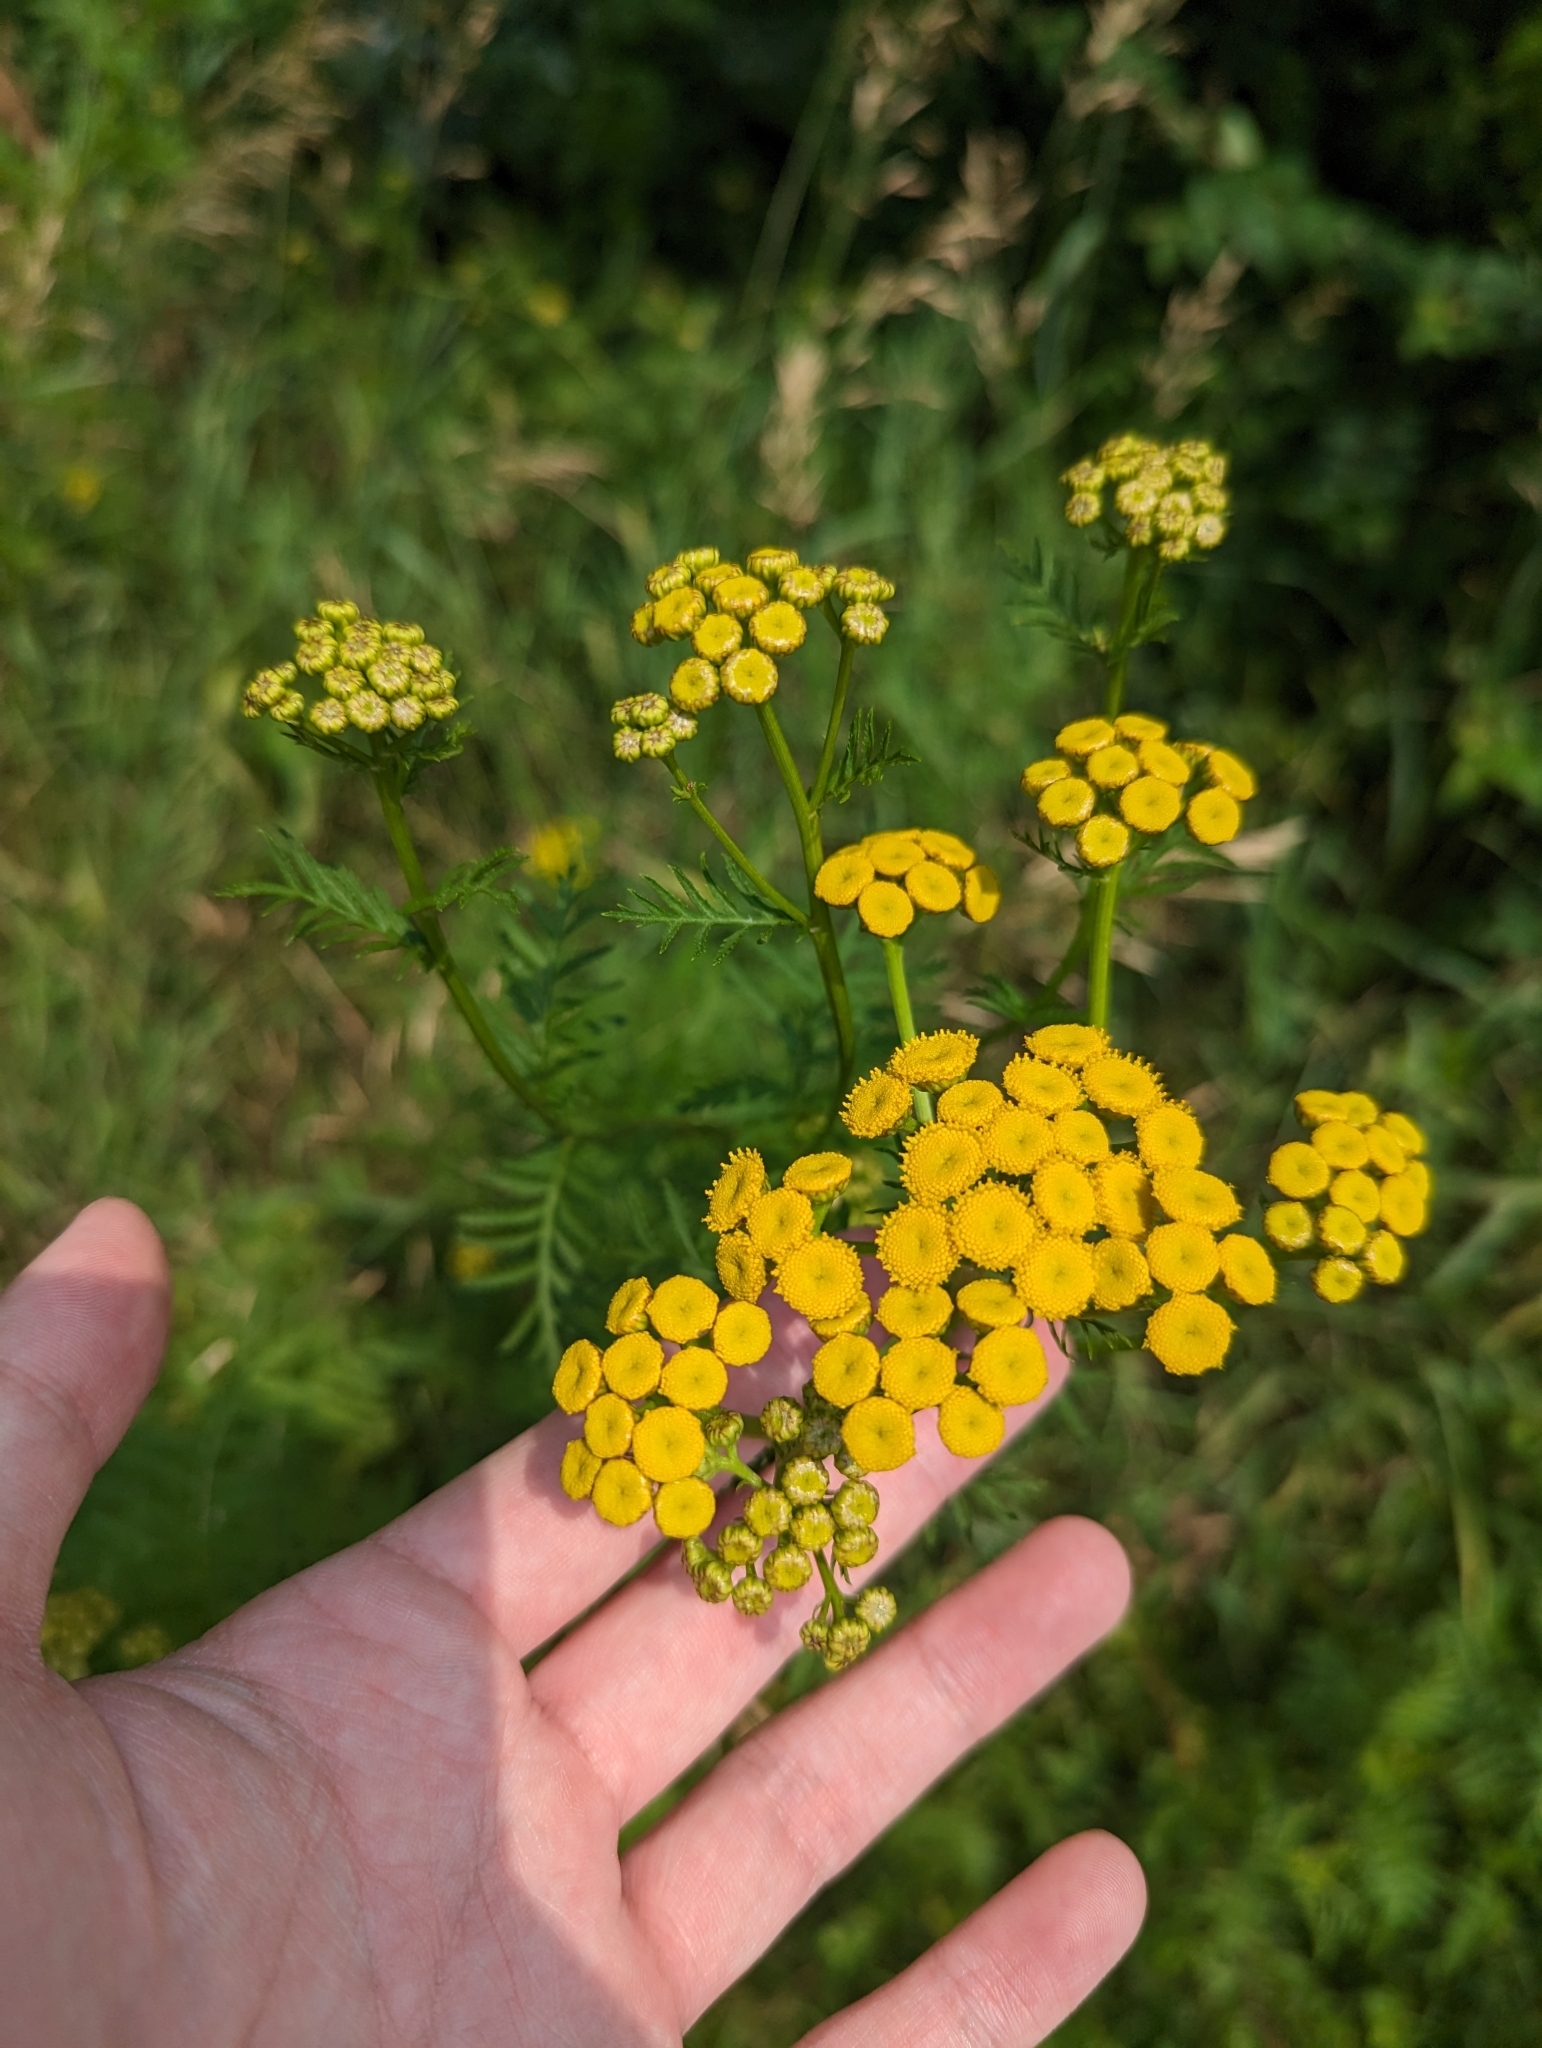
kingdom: Plantae
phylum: Tracheophyta
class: Magnoliopsida
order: Asterales
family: Asteraceae
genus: Tanacetum
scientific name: Tanacetum vulgare
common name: Common tansy
